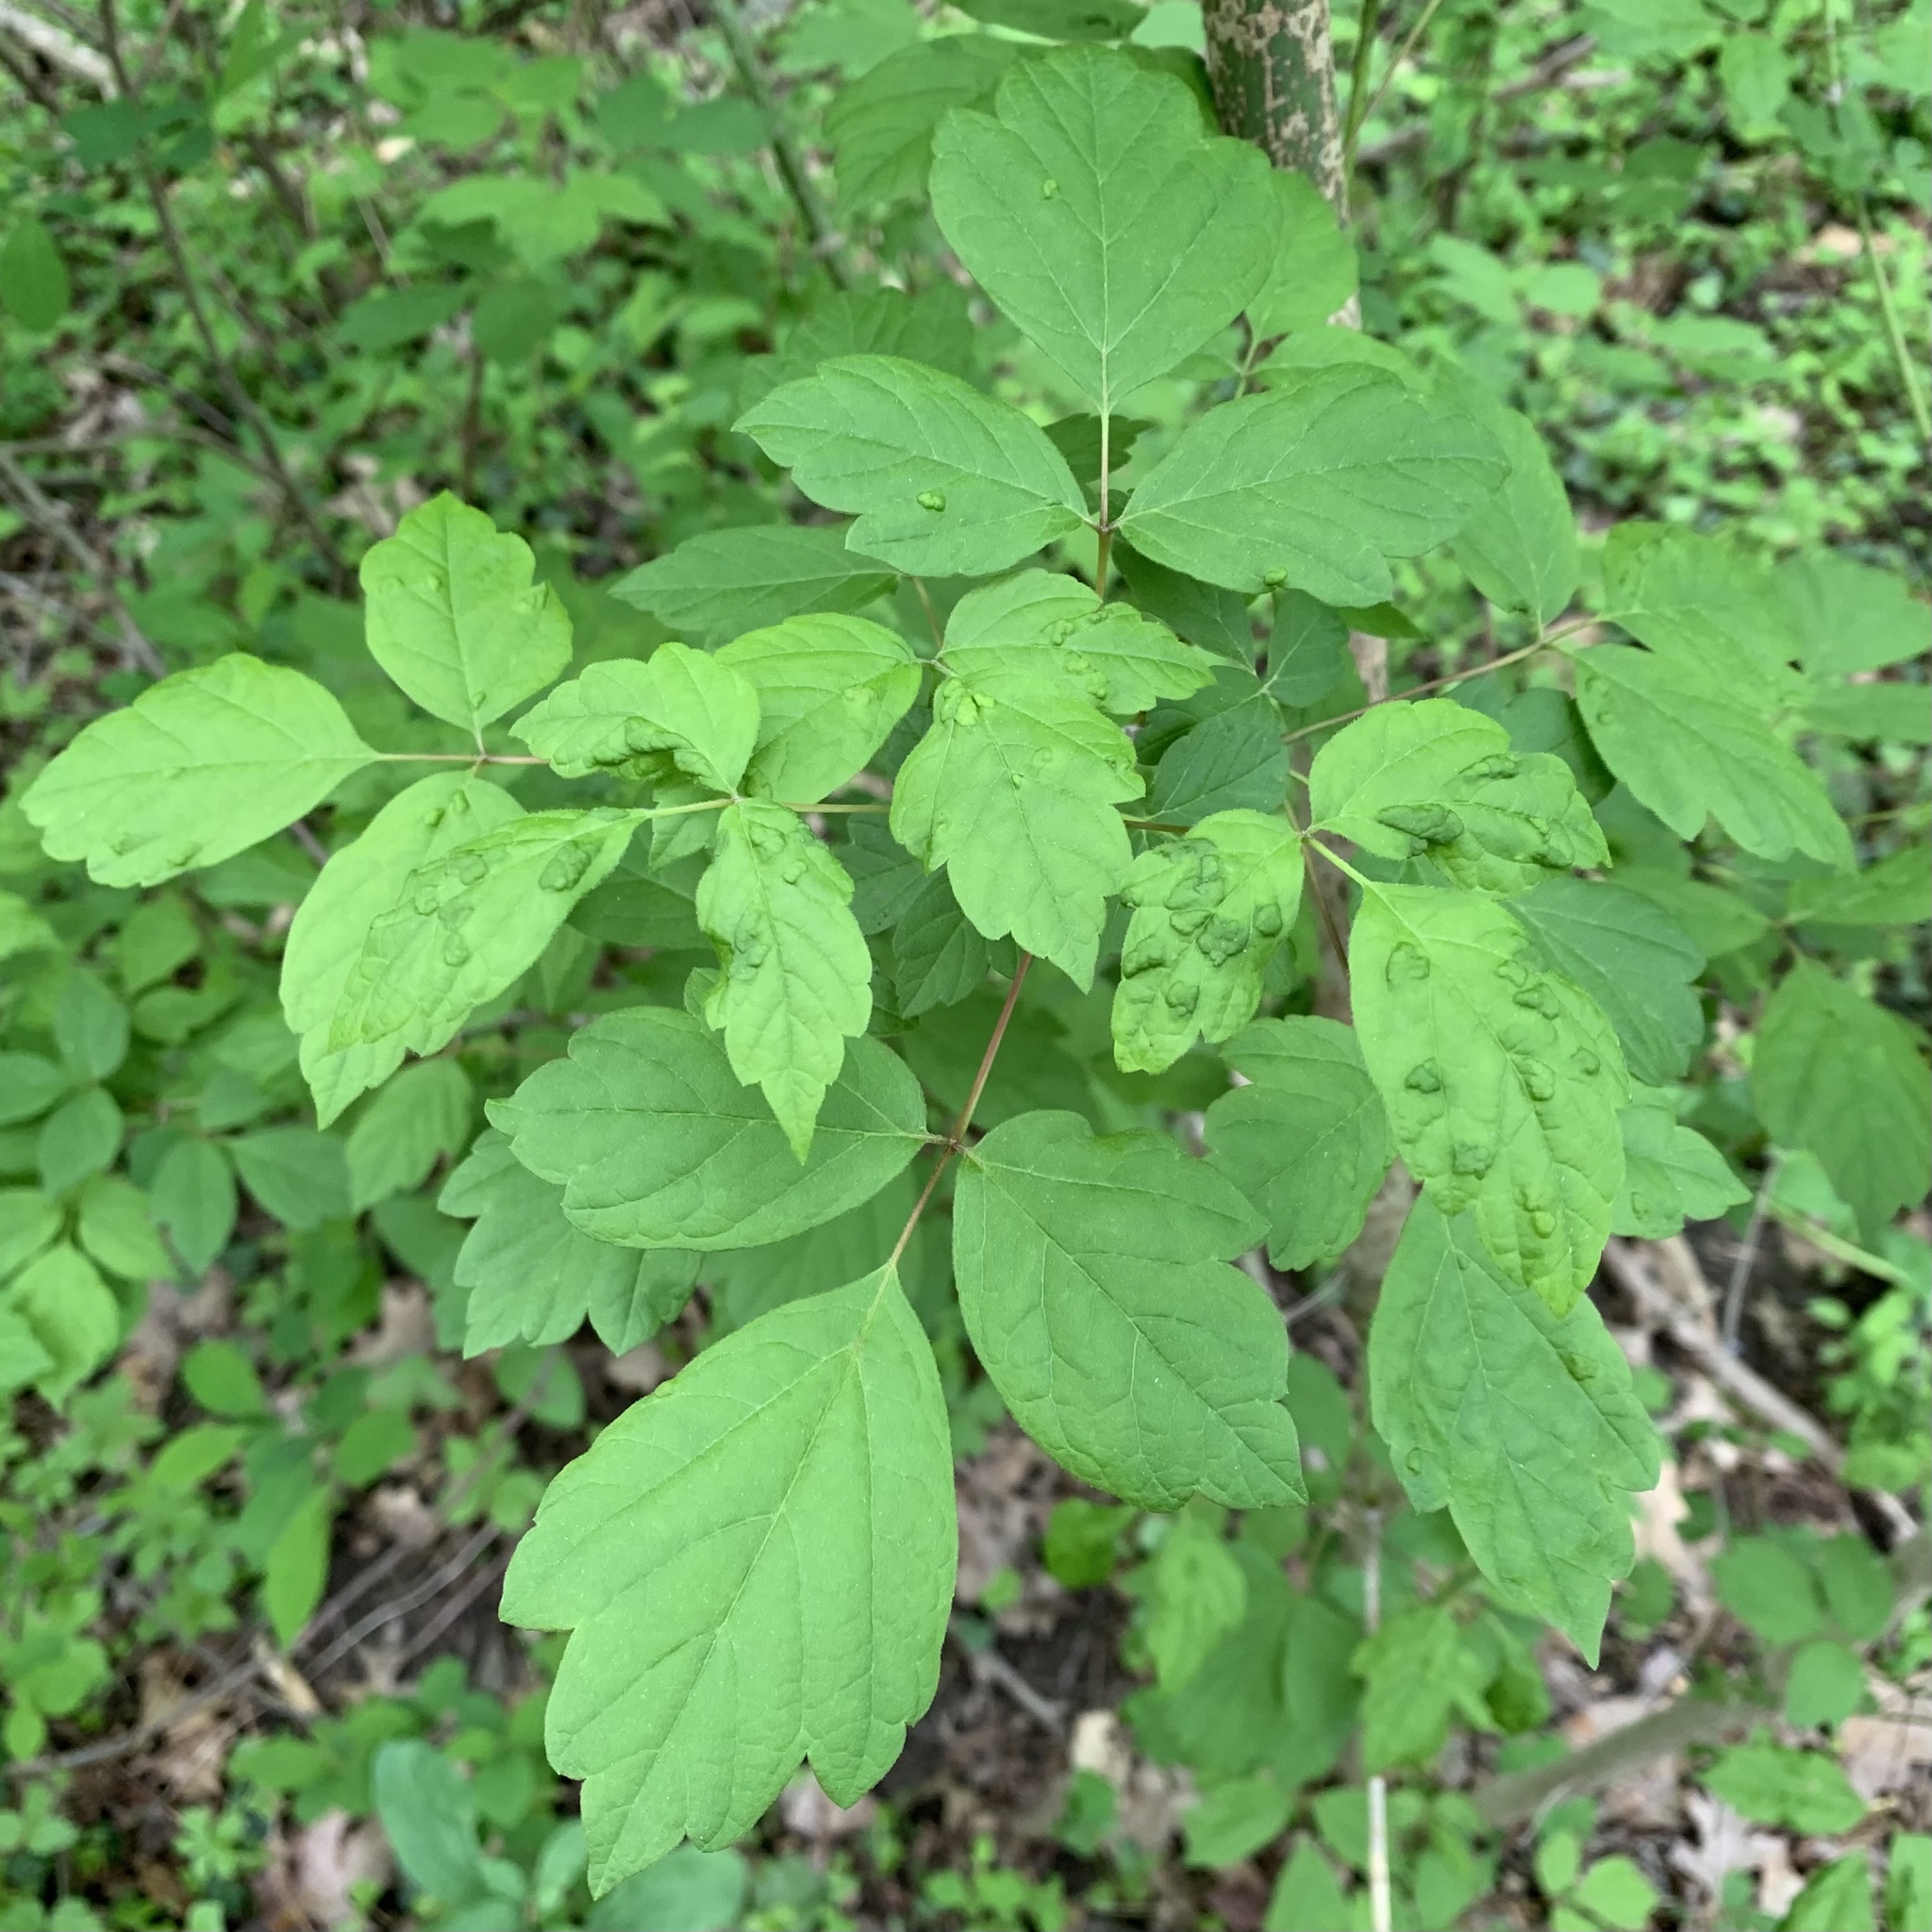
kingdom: Animalia
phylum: Arthropoda
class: Arachnida
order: Trombidiformes
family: Eriophyidae
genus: Aceria
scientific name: Aceria
